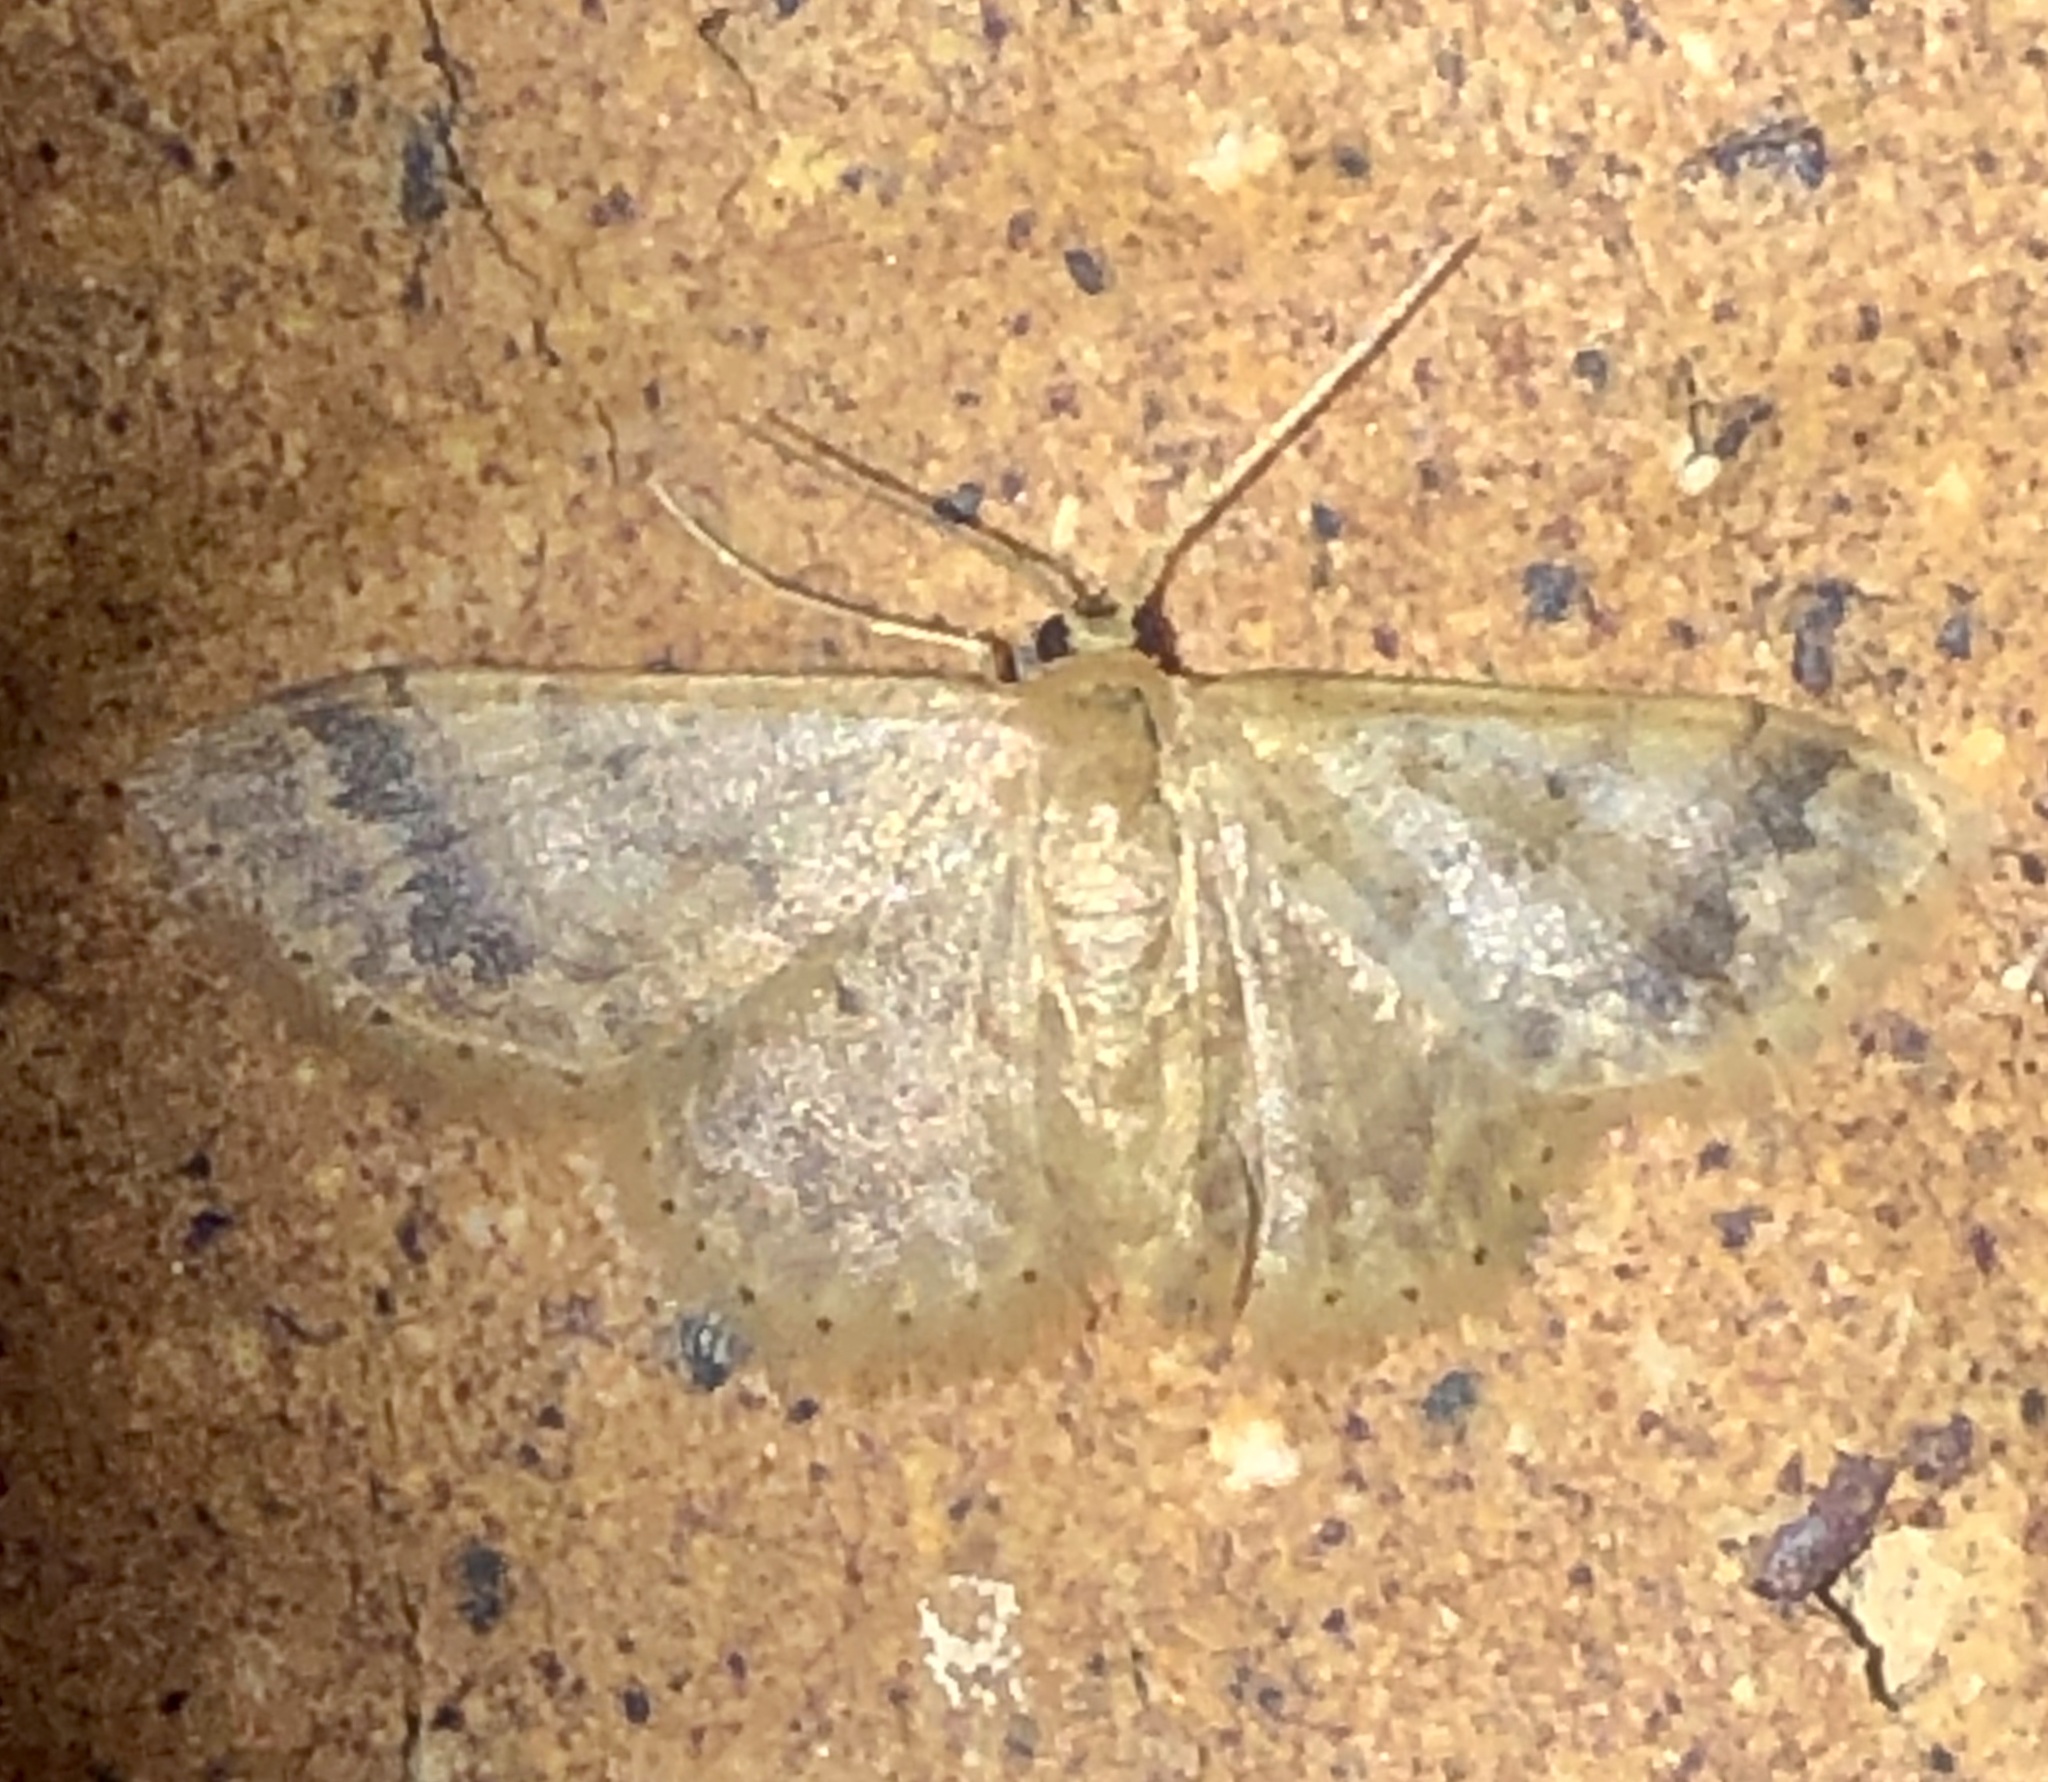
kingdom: Animalia
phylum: Arthropoda
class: Insecta
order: Lepidoptera
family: Geometridae
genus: Idaea
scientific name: Idaea pilosata
